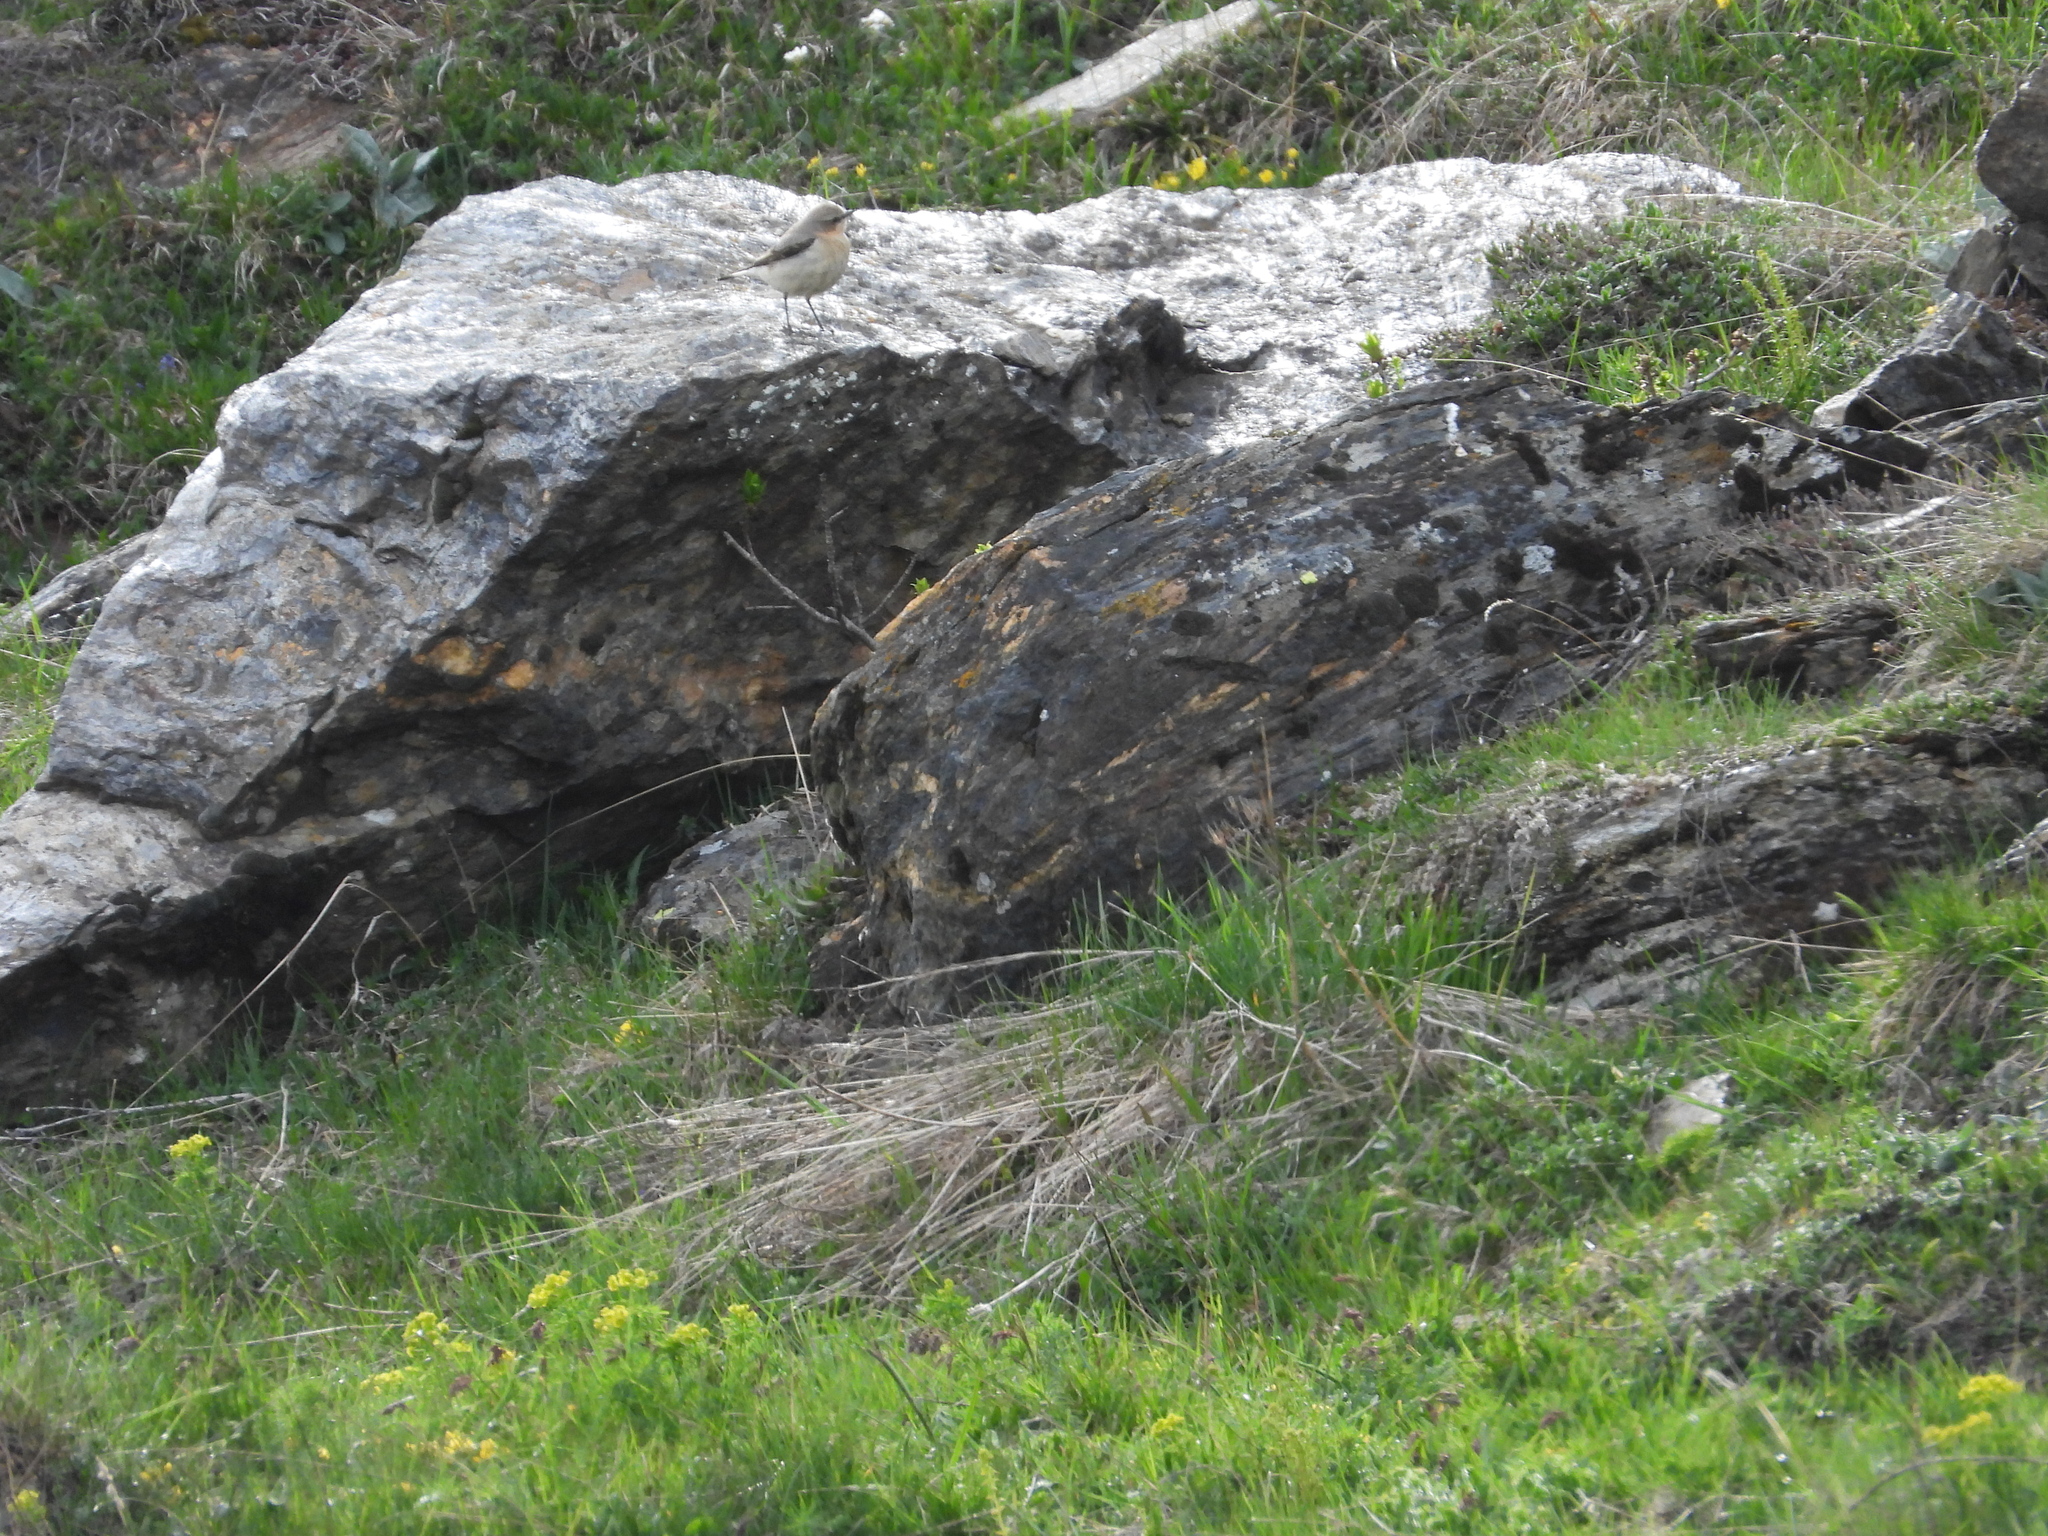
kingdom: Animalia
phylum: Chordata
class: Aves
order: Passeriformes
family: Muscicapidae
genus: Oenanthe
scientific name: Oenanthe oenanthe
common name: Northern wheatear
